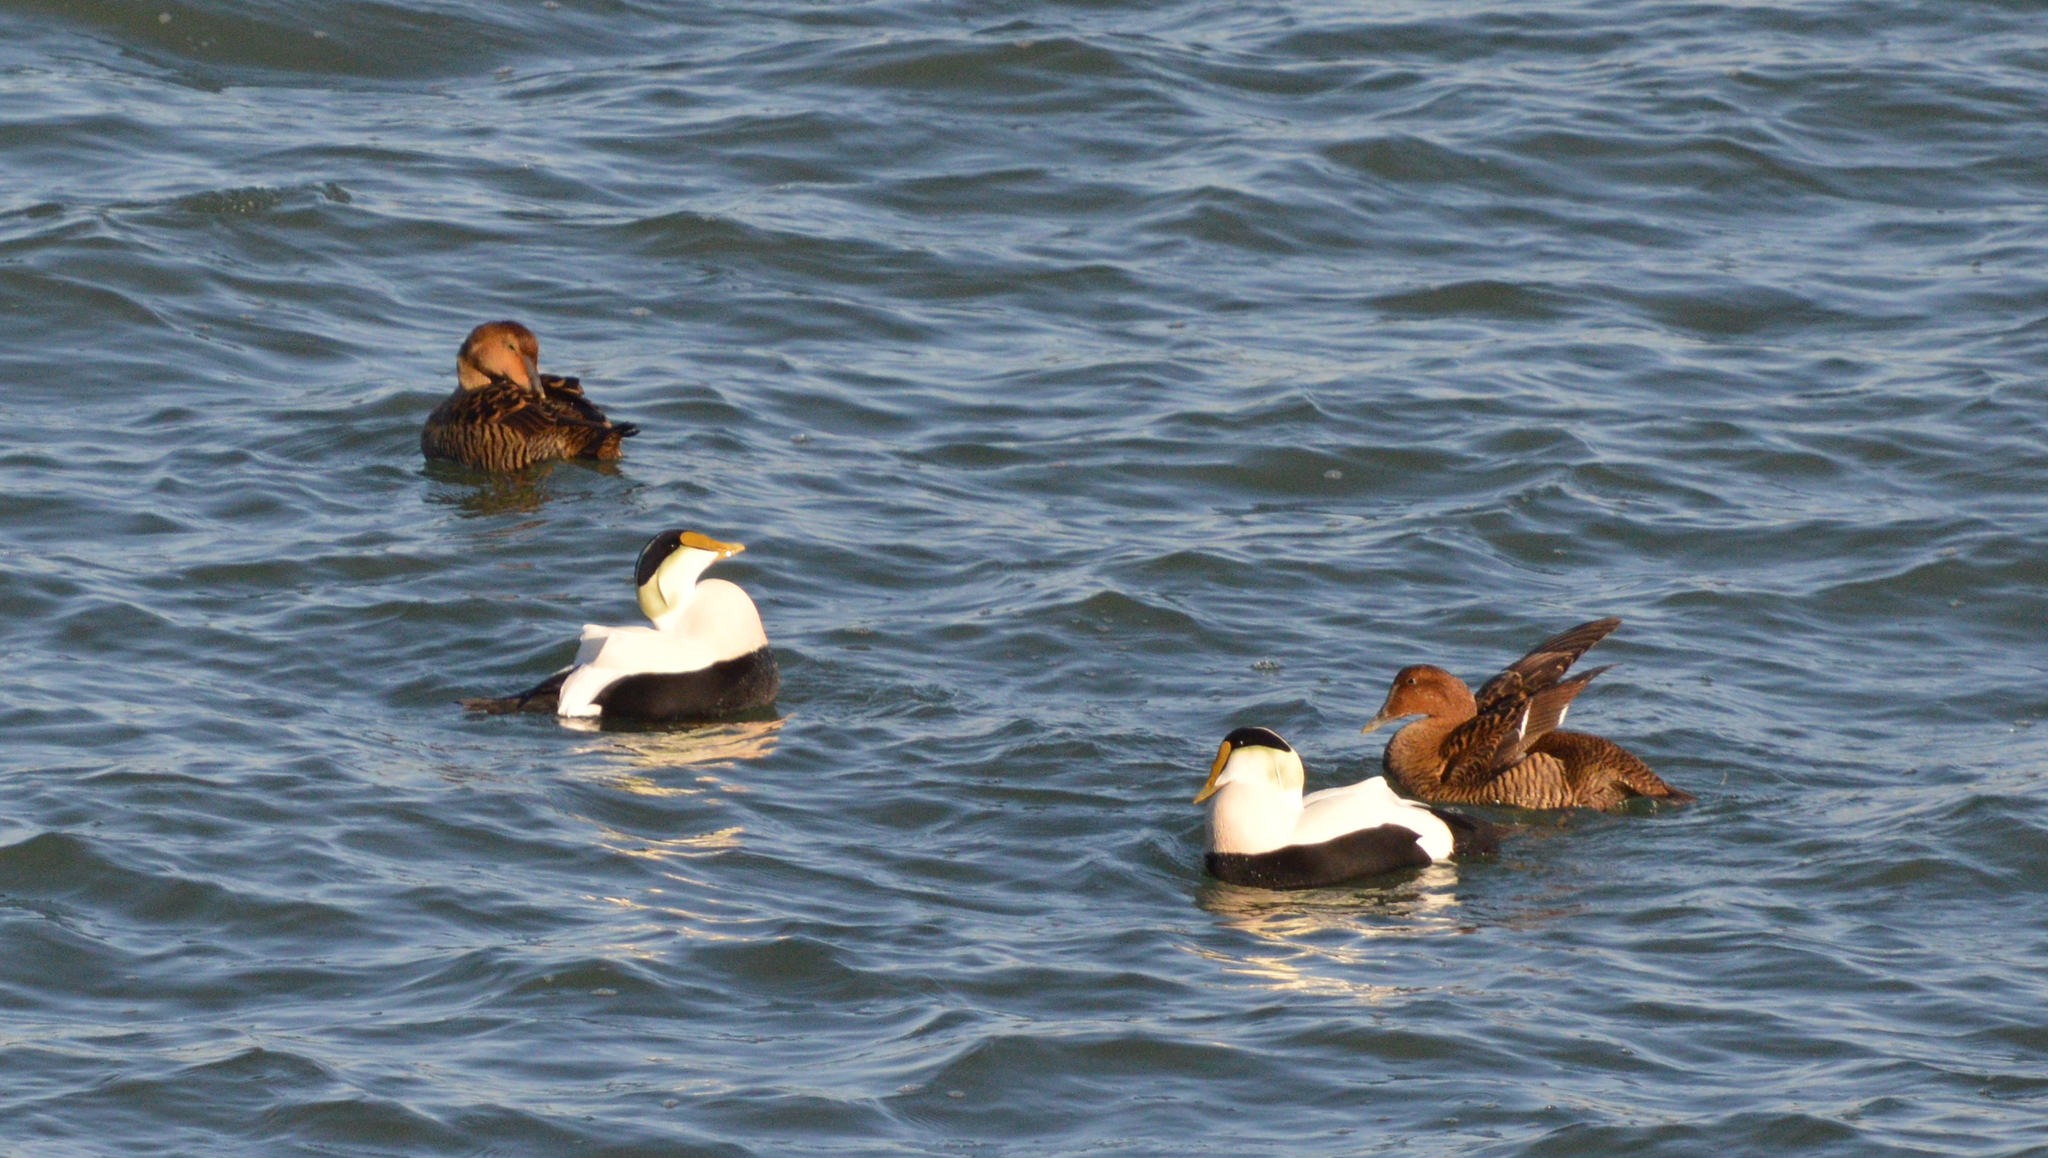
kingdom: Animalia
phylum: Chordata
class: Aves
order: Anseriformes
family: Anatidae
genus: Somateria
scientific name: Somateria mollissima
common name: Common eider
